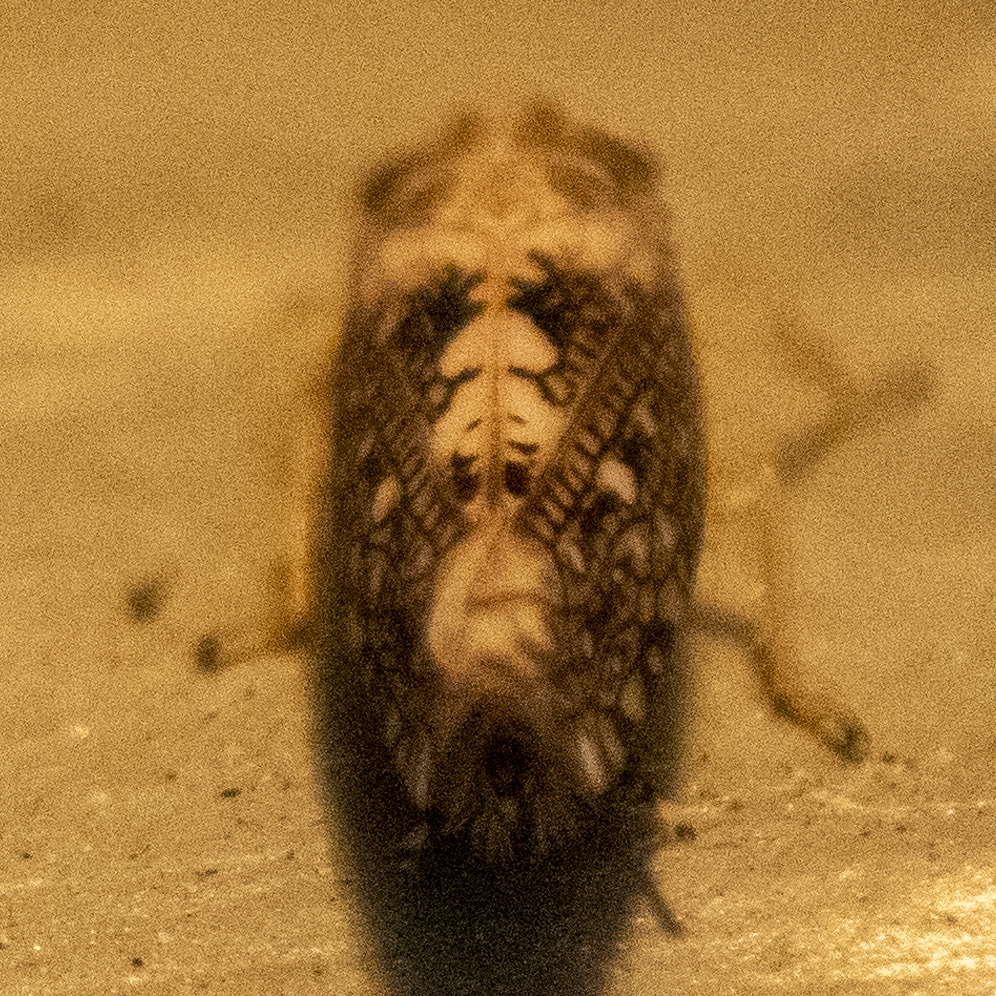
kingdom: Animalia
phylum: Arthropoda
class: Insecta
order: Hemiptera
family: Cicadellidae
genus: Prescottia
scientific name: Prescottia lobata
